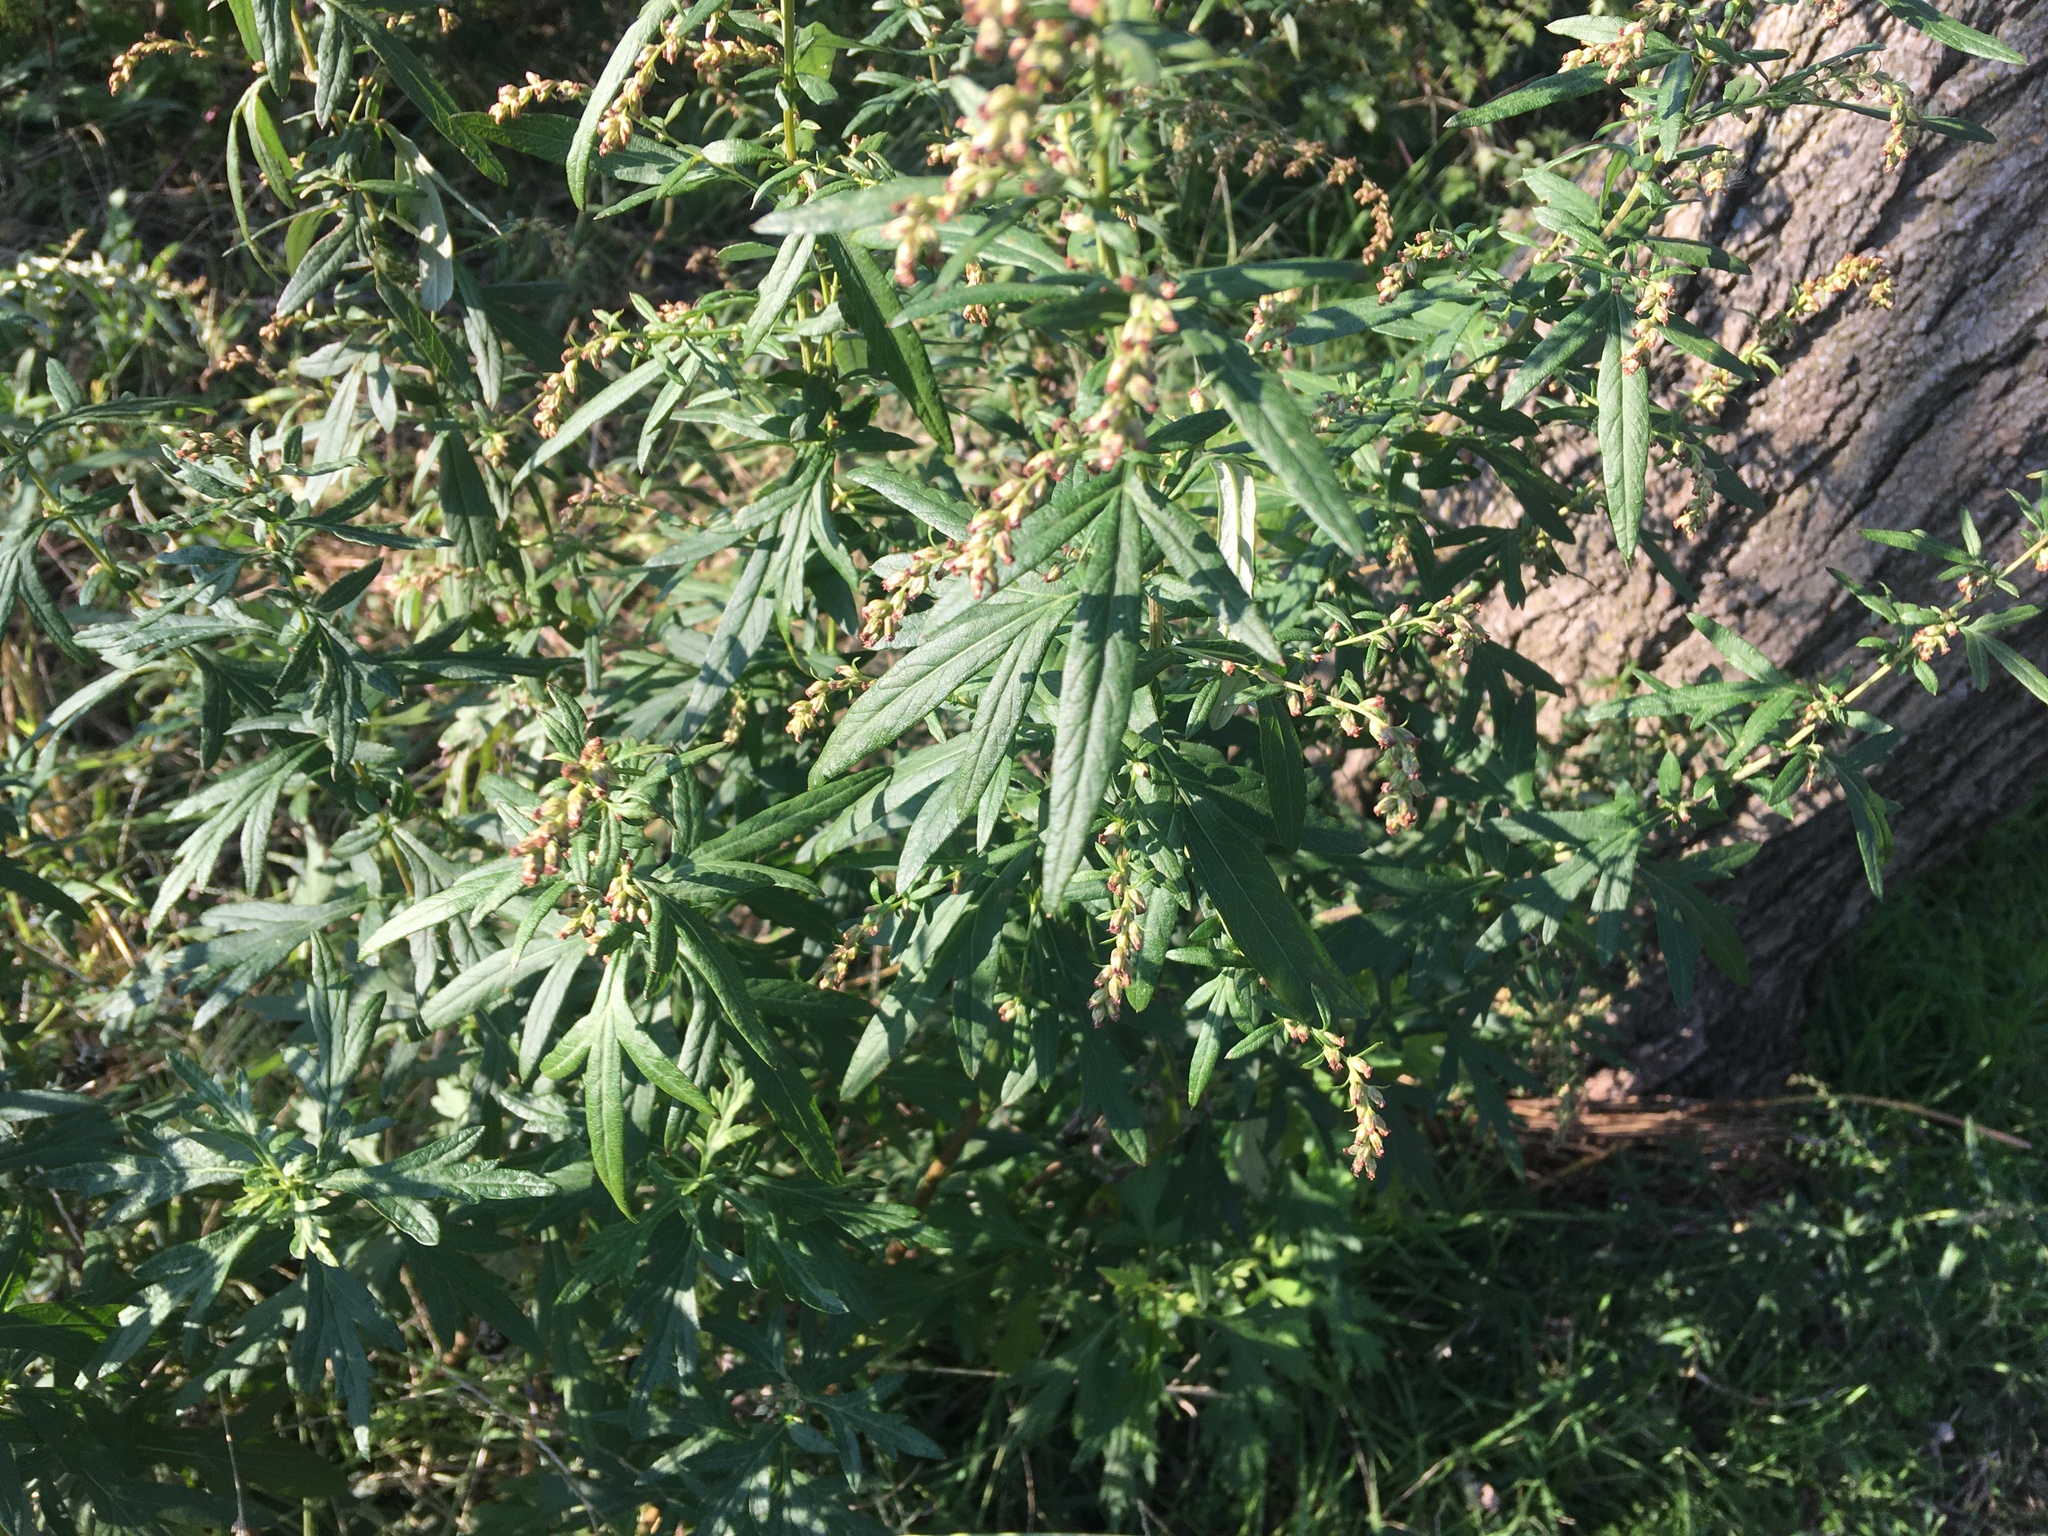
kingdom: Plantae
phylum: Tracheophyta
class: Magnoliopsida
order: Asterales
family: Asteraceae
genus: Artemisia
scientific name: Artemisia vulgaris
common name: Mugwort
